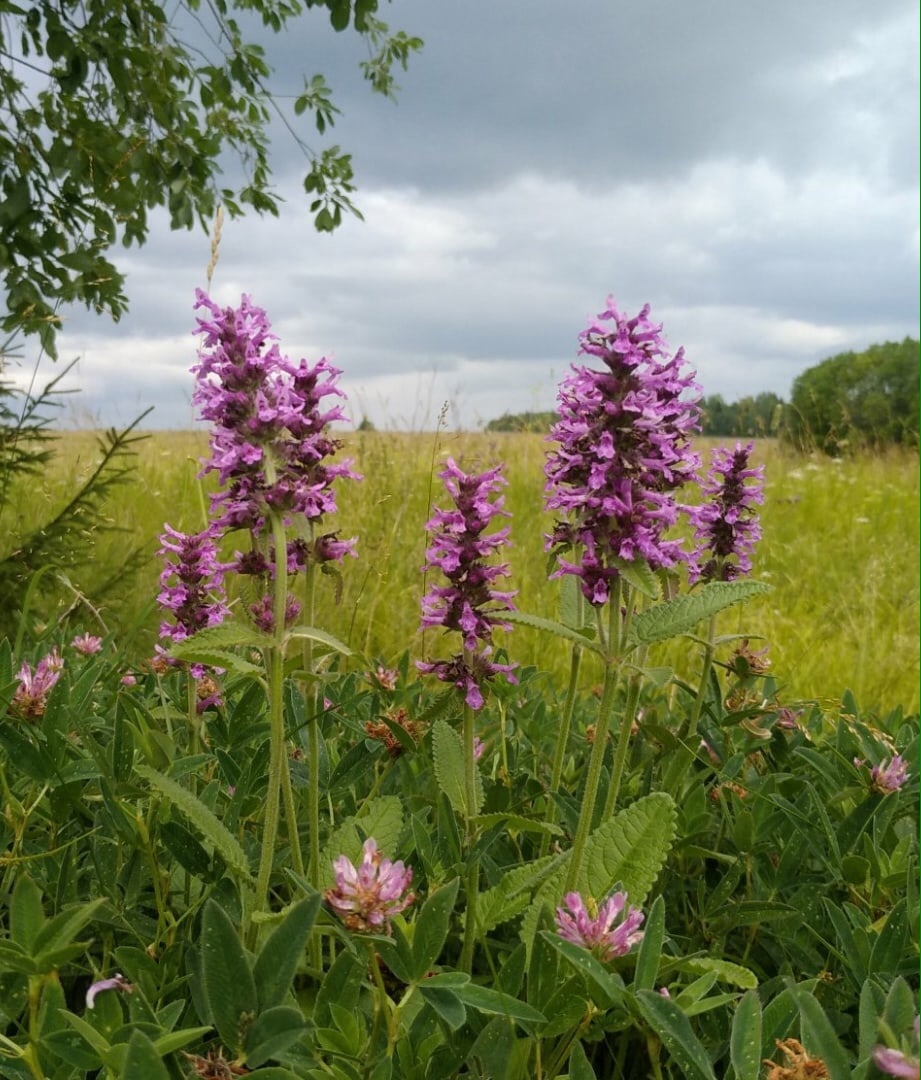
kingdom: Plantae
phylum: Tracheophyta
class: Magnoliopsida
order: Lamiales
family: Lamiaceae
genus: Betonica
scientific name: Betonica officinalis
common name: Bishop's-wort
